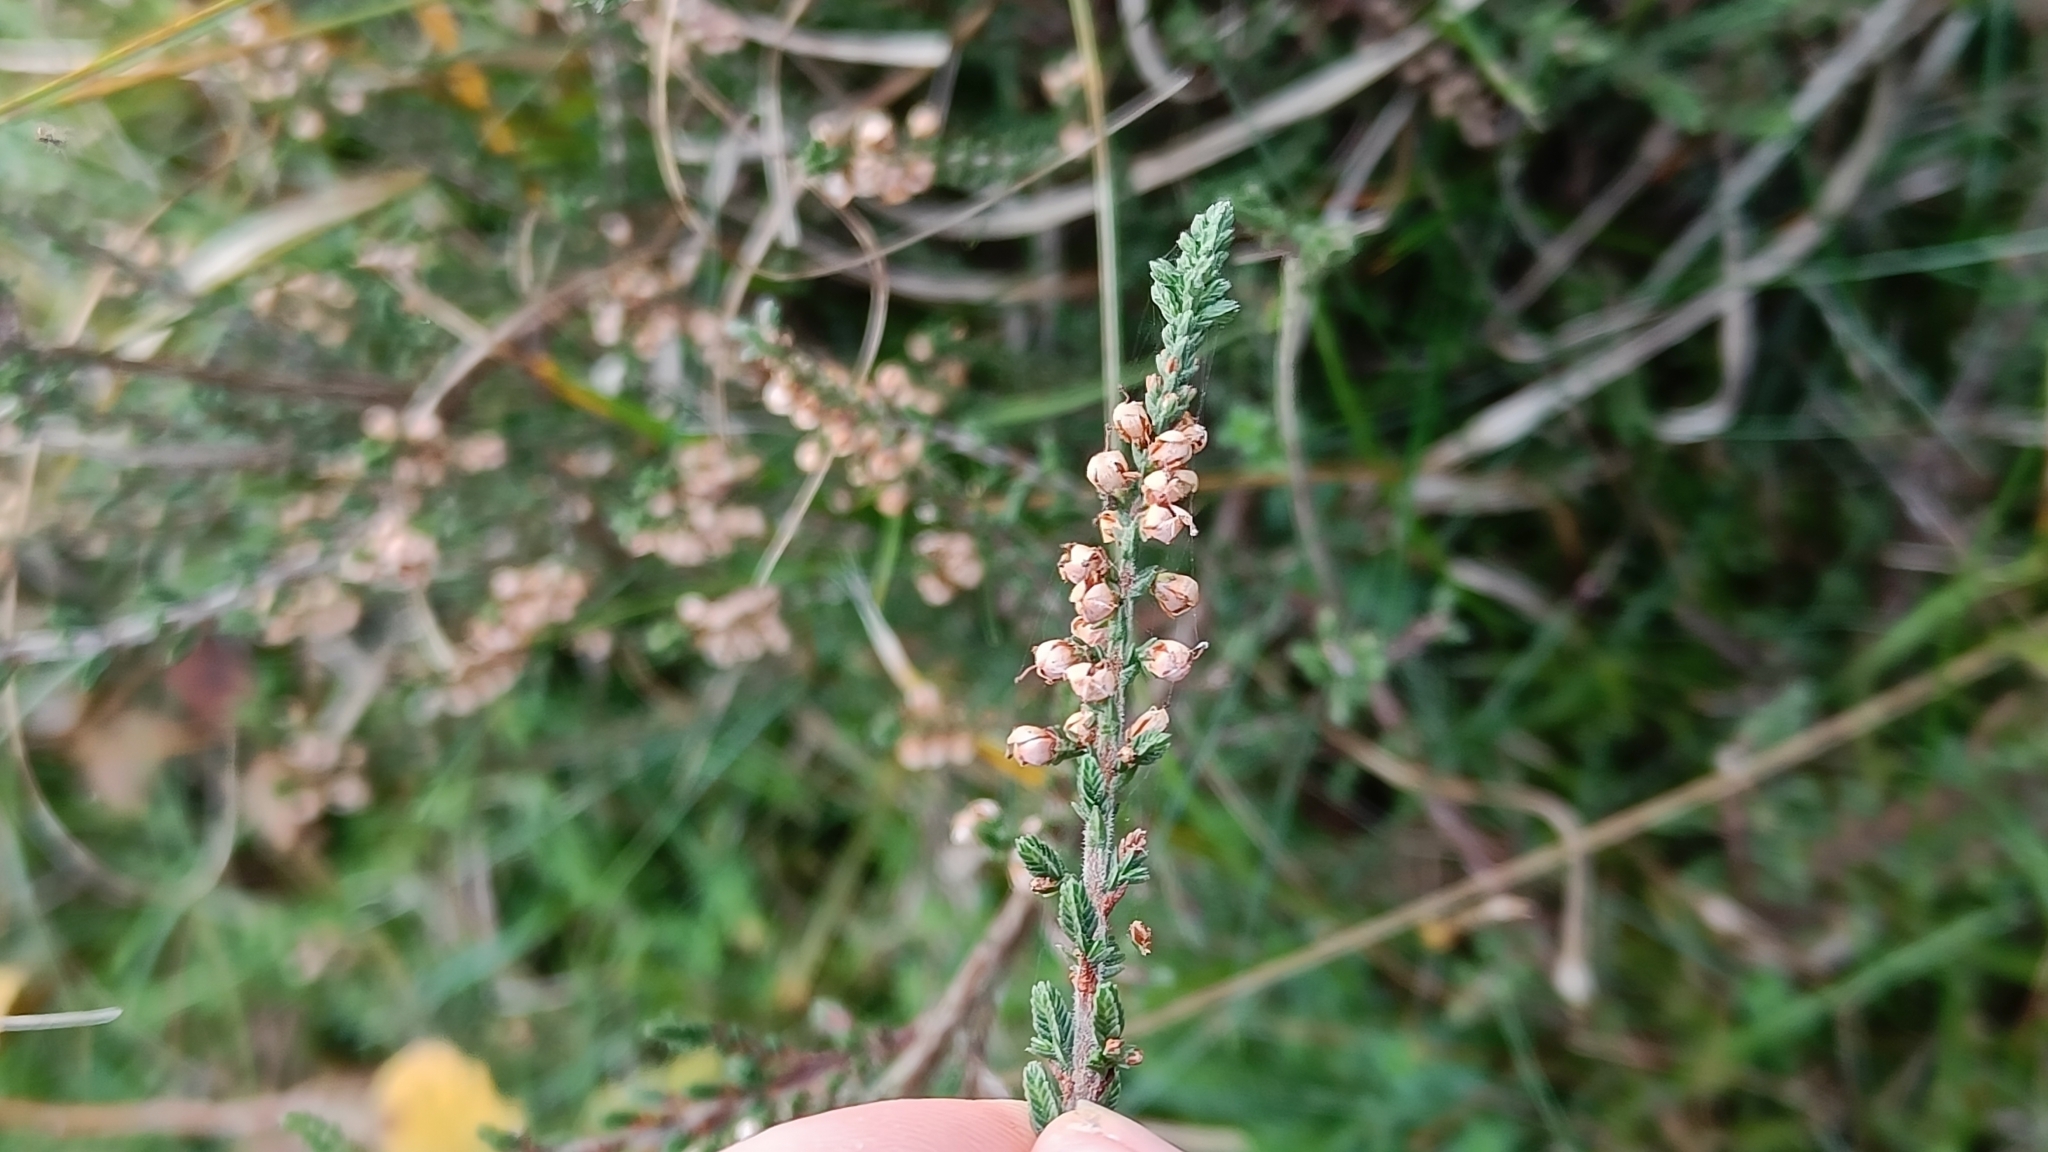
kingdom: Plantae
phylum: Tracheophyta
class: Magnoliopsida
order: Ericales
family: Ericaceae
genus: Calluna
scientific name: Calluna vulgaris
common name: Heather
